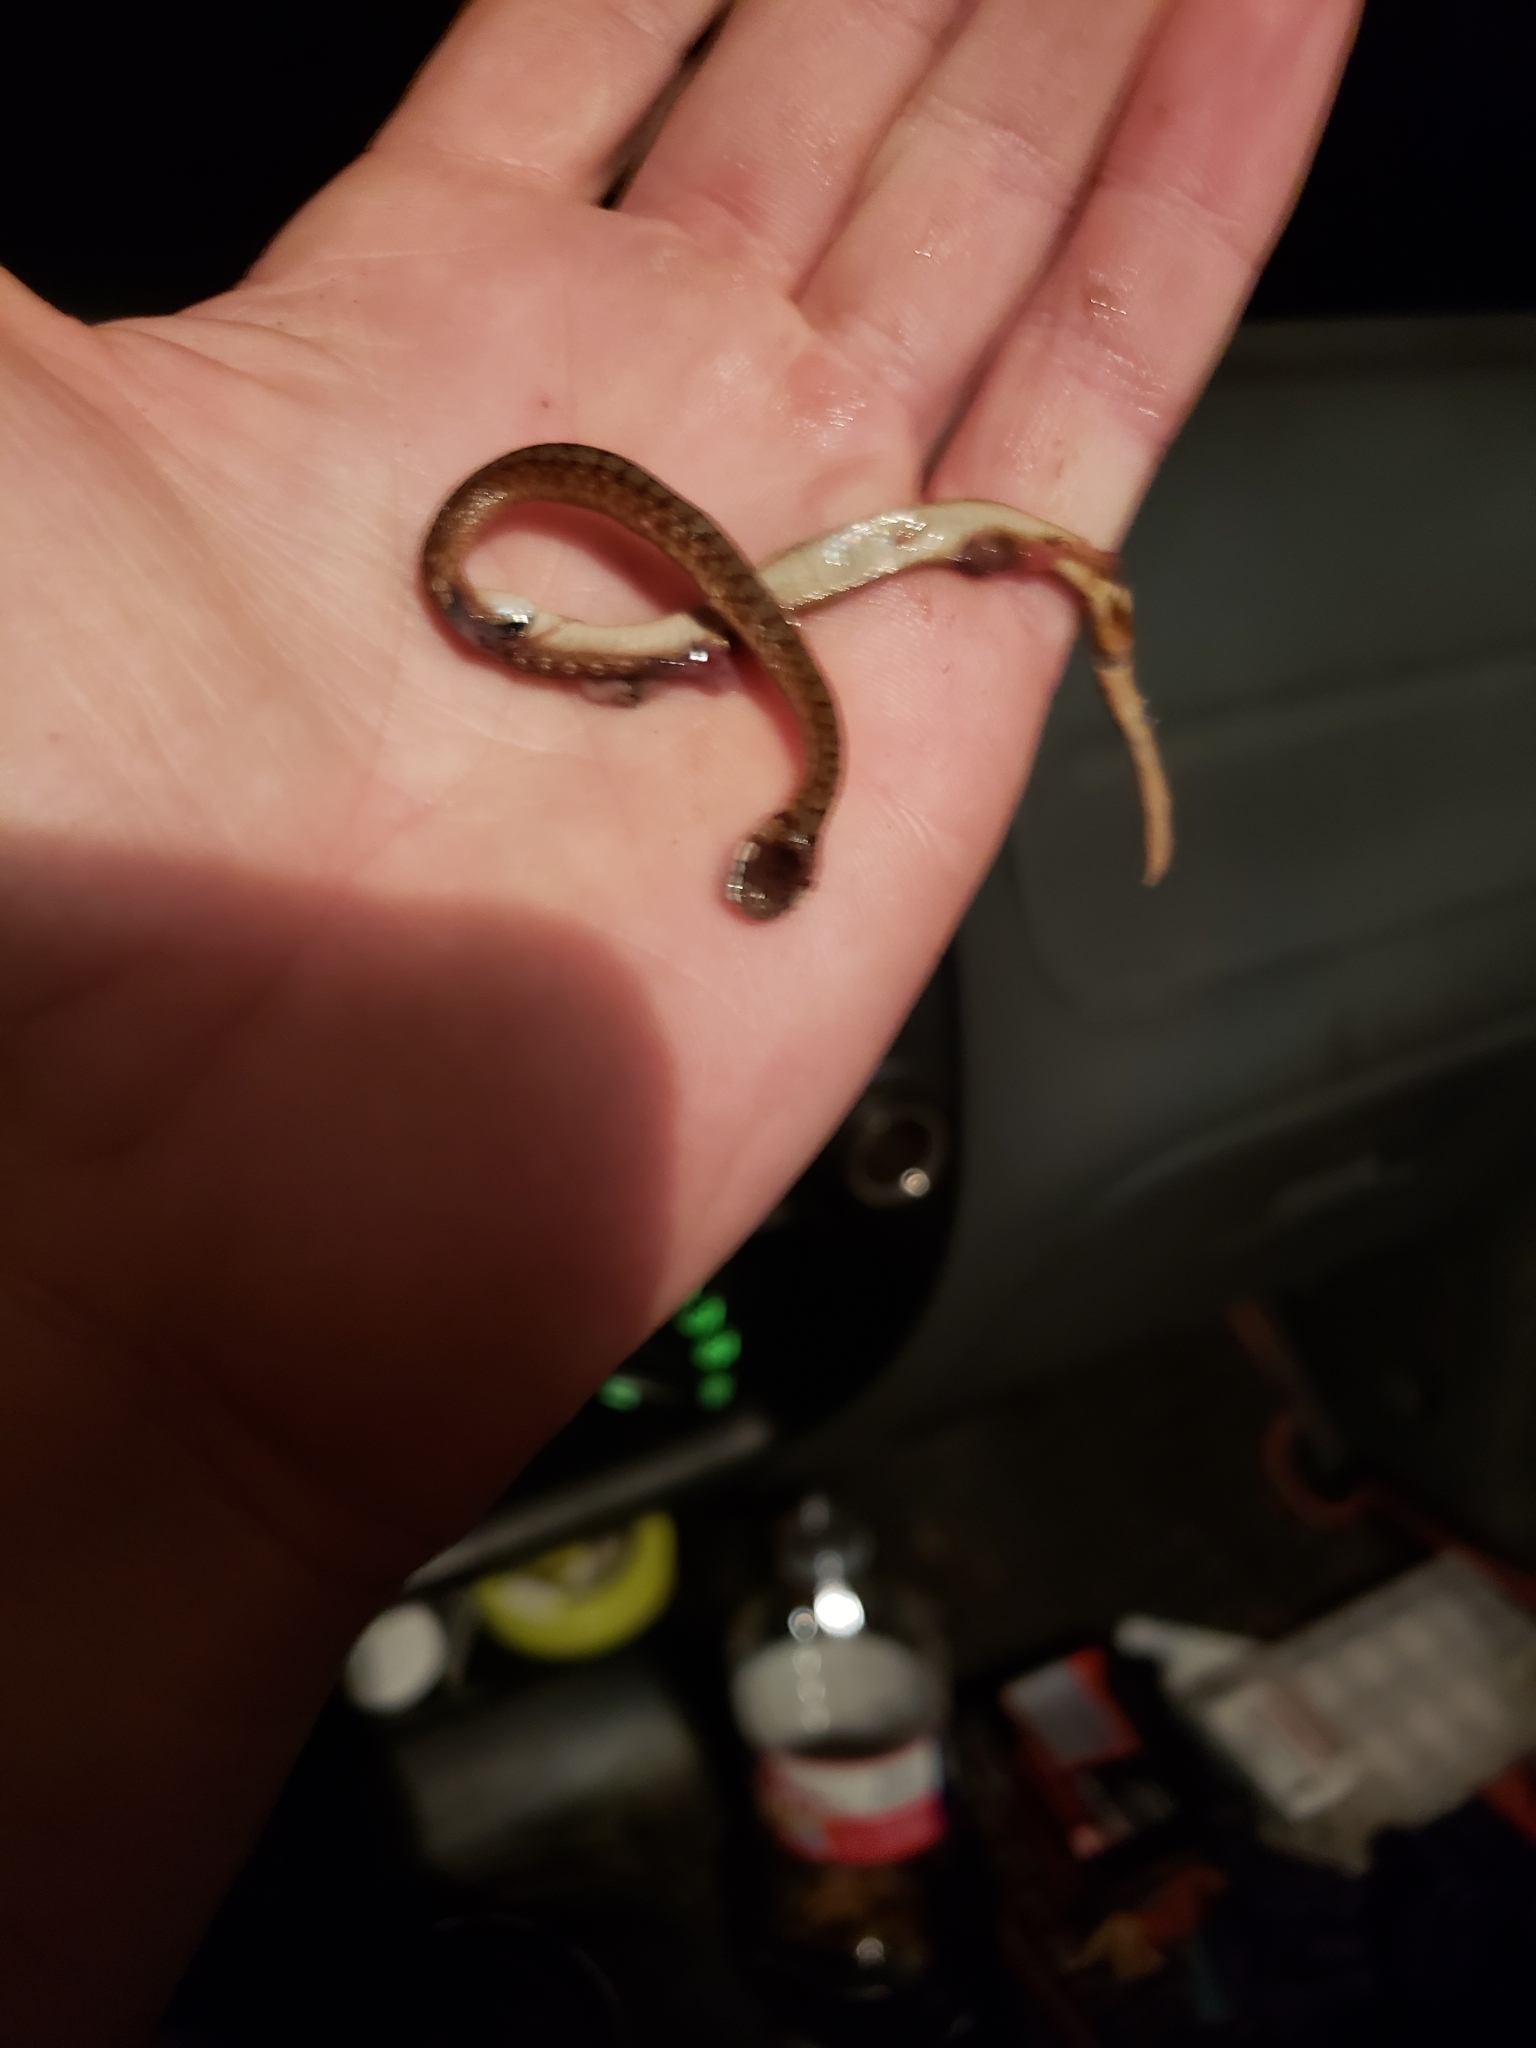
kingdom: Animalia
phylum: Chordata
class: Squamata
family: Colubridae
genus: Storeria
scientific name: Storeria dekayi
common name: (dekay’s) brown snake
